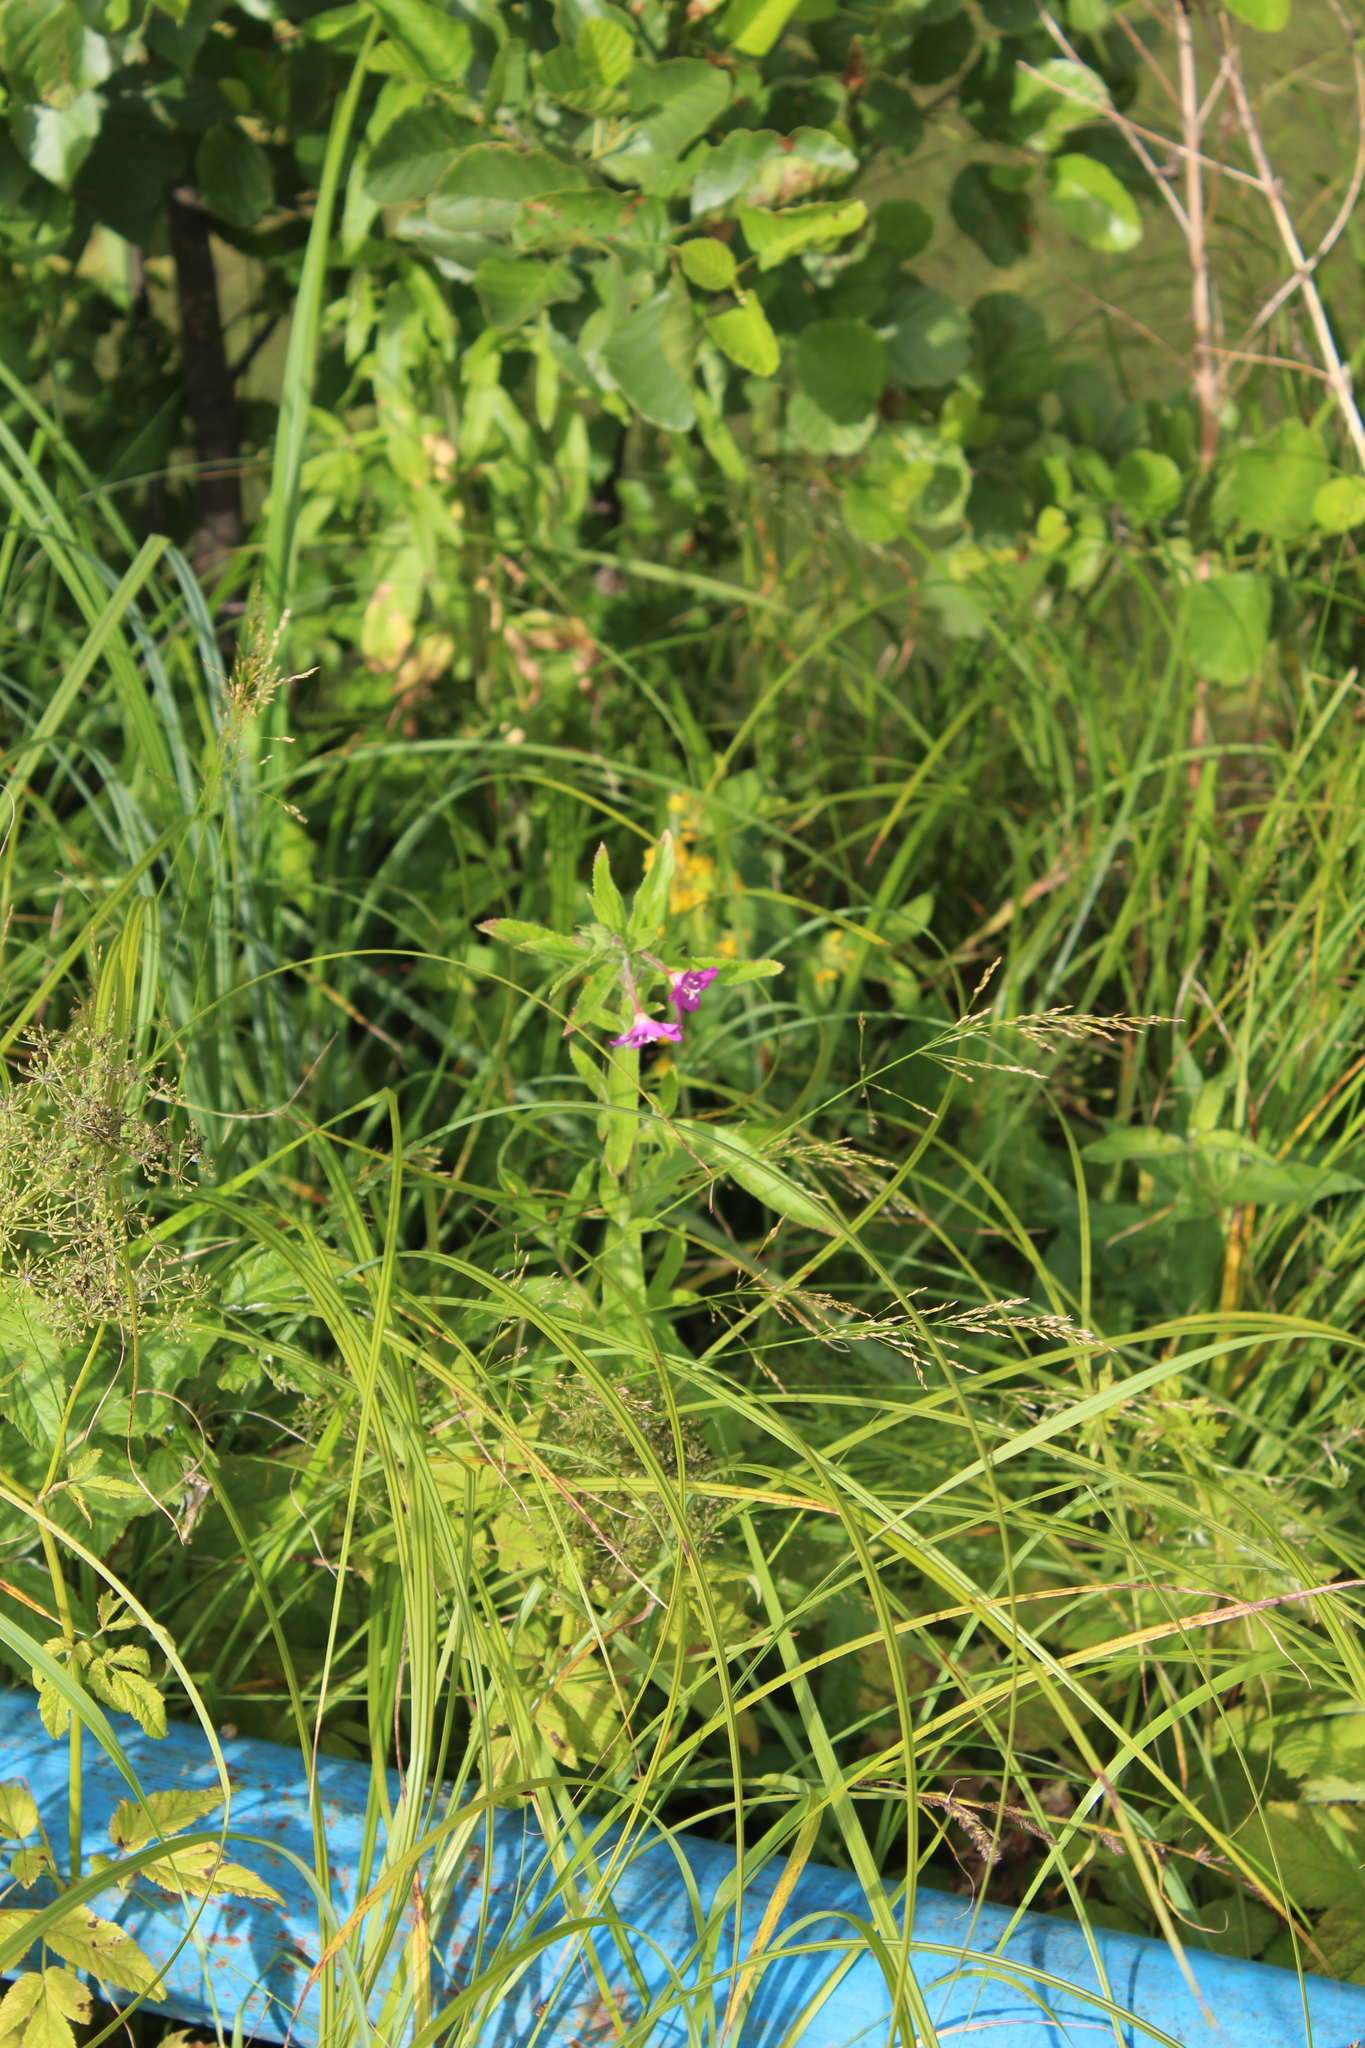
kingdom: Plantae
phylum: Tracheophyta
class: Magnoliopsida
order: Myrtales
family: Onagraceae
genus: Epilobium
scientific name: Epilobium hirsutum
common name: Great willowherb
